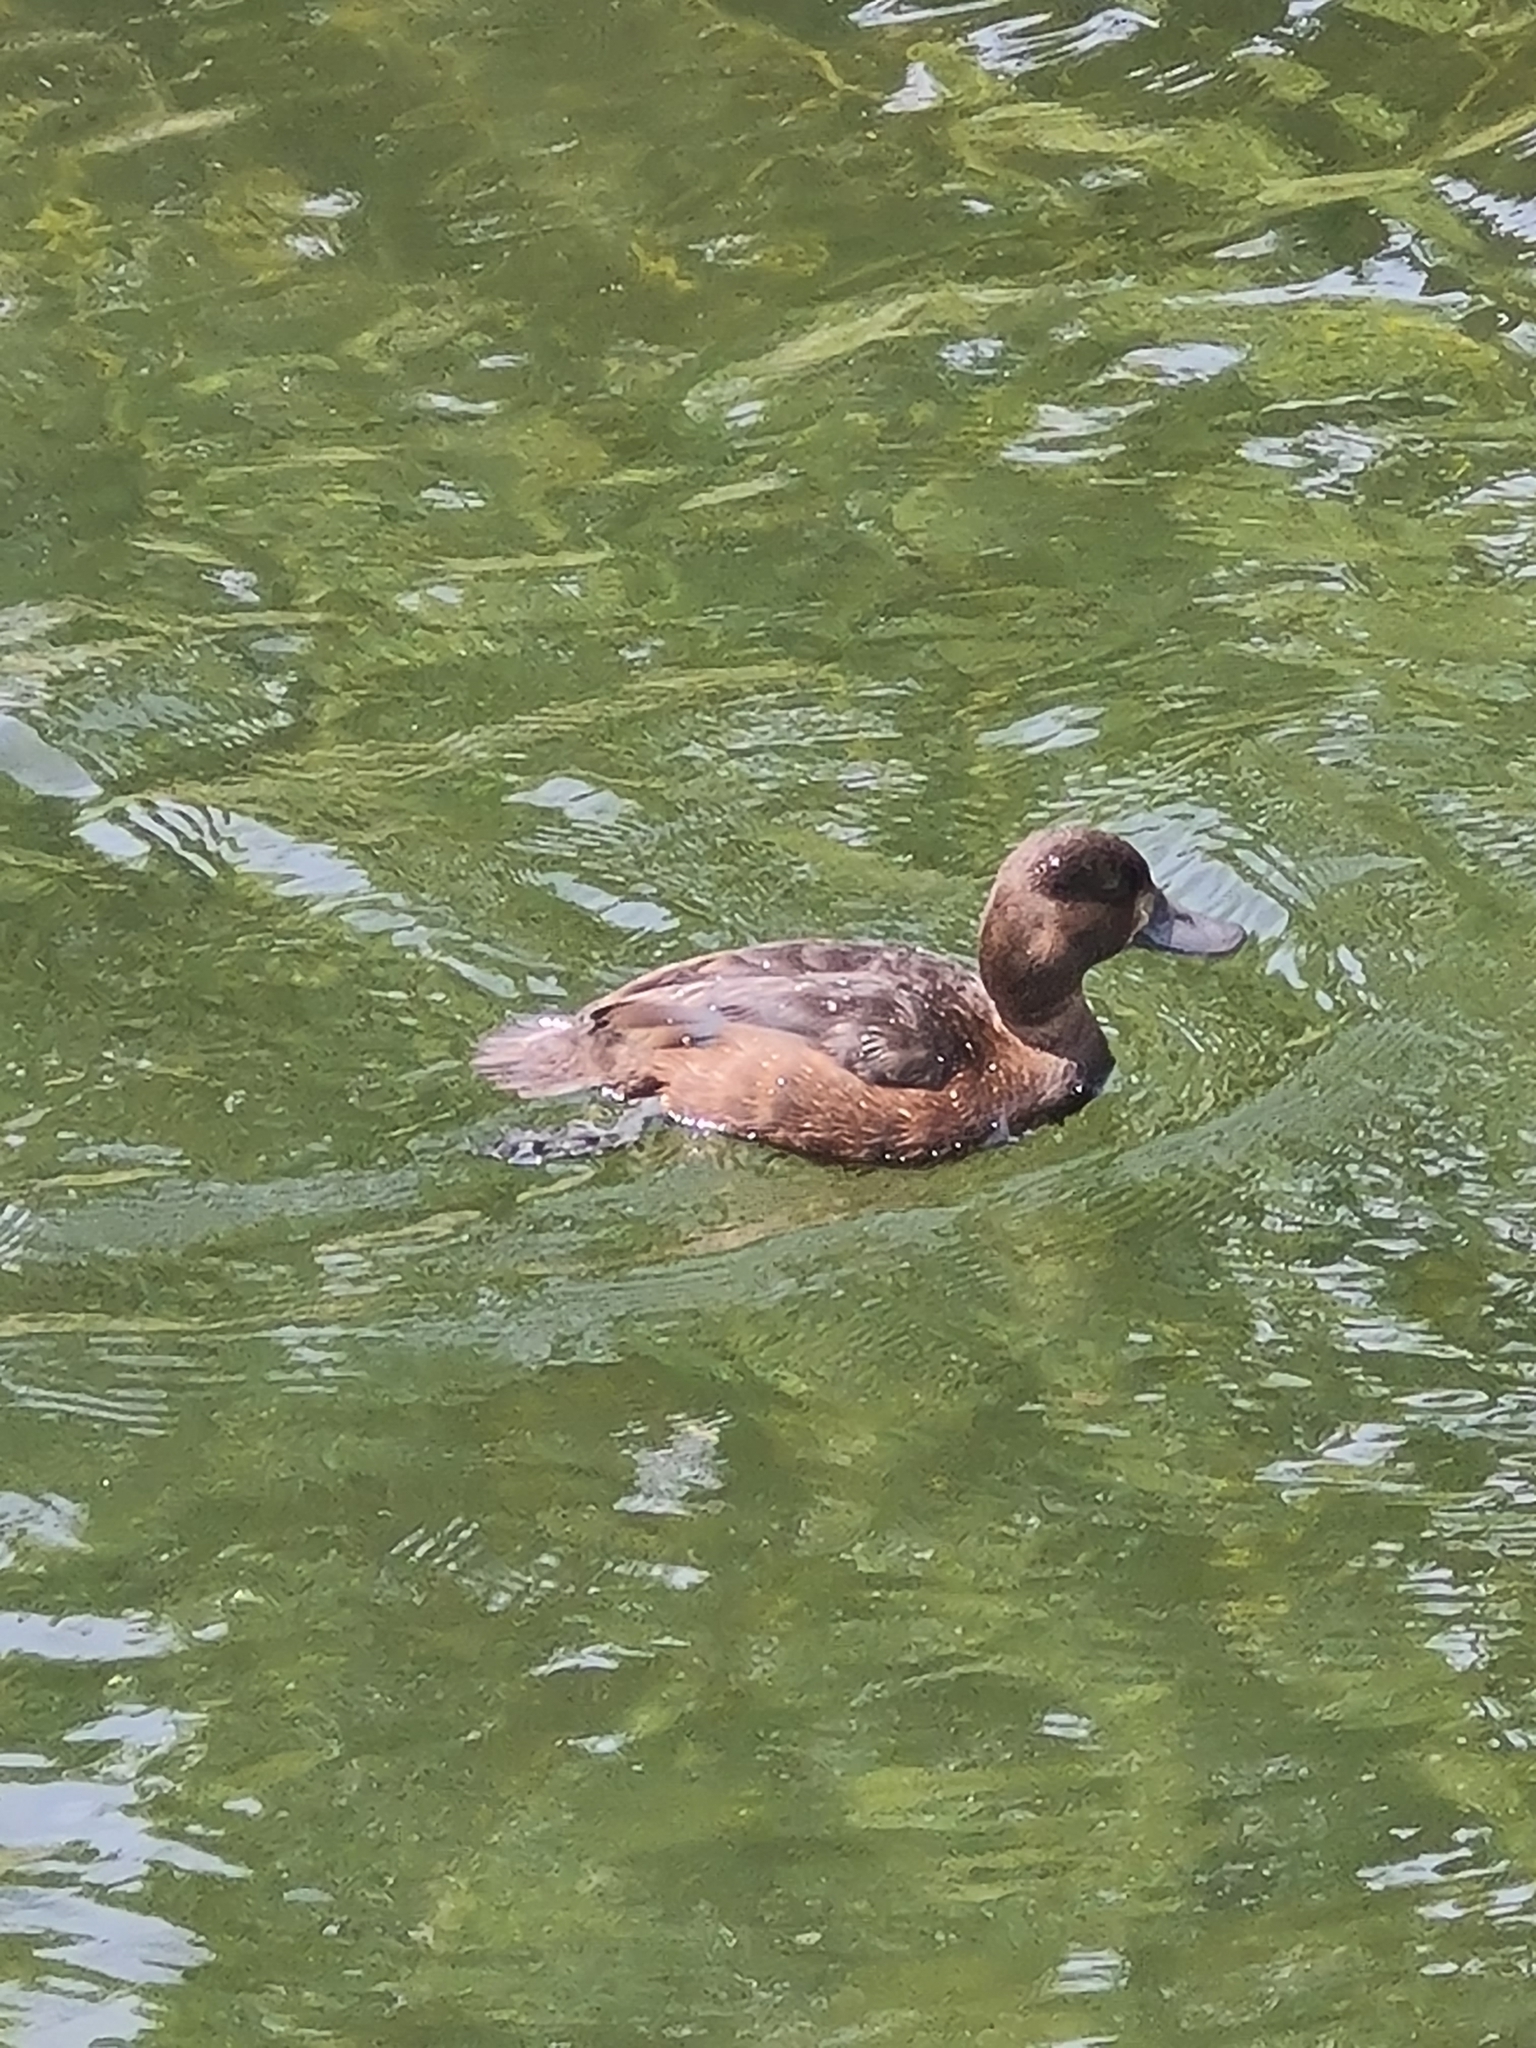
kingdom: Animalia
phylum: Chordata
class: Aves
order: Anseriformes
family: Anatidae
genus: Aythya
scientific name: Aythya novaeseelandiae
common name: New zealand scaup
